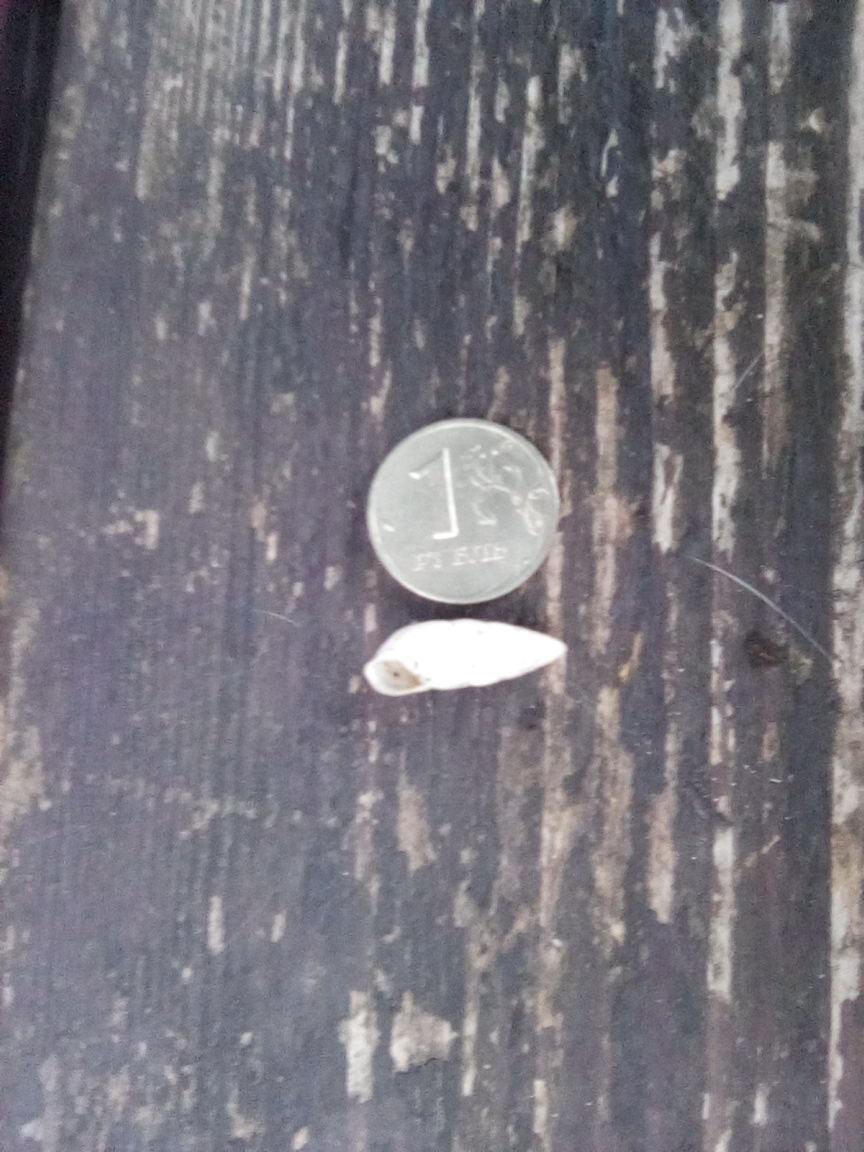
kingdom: Animalia
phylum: Mollusca
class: Gastropoda
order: Stylommatophora
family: Enidae
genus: Brephulopsis
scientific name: Brephulopsis cylindrica
